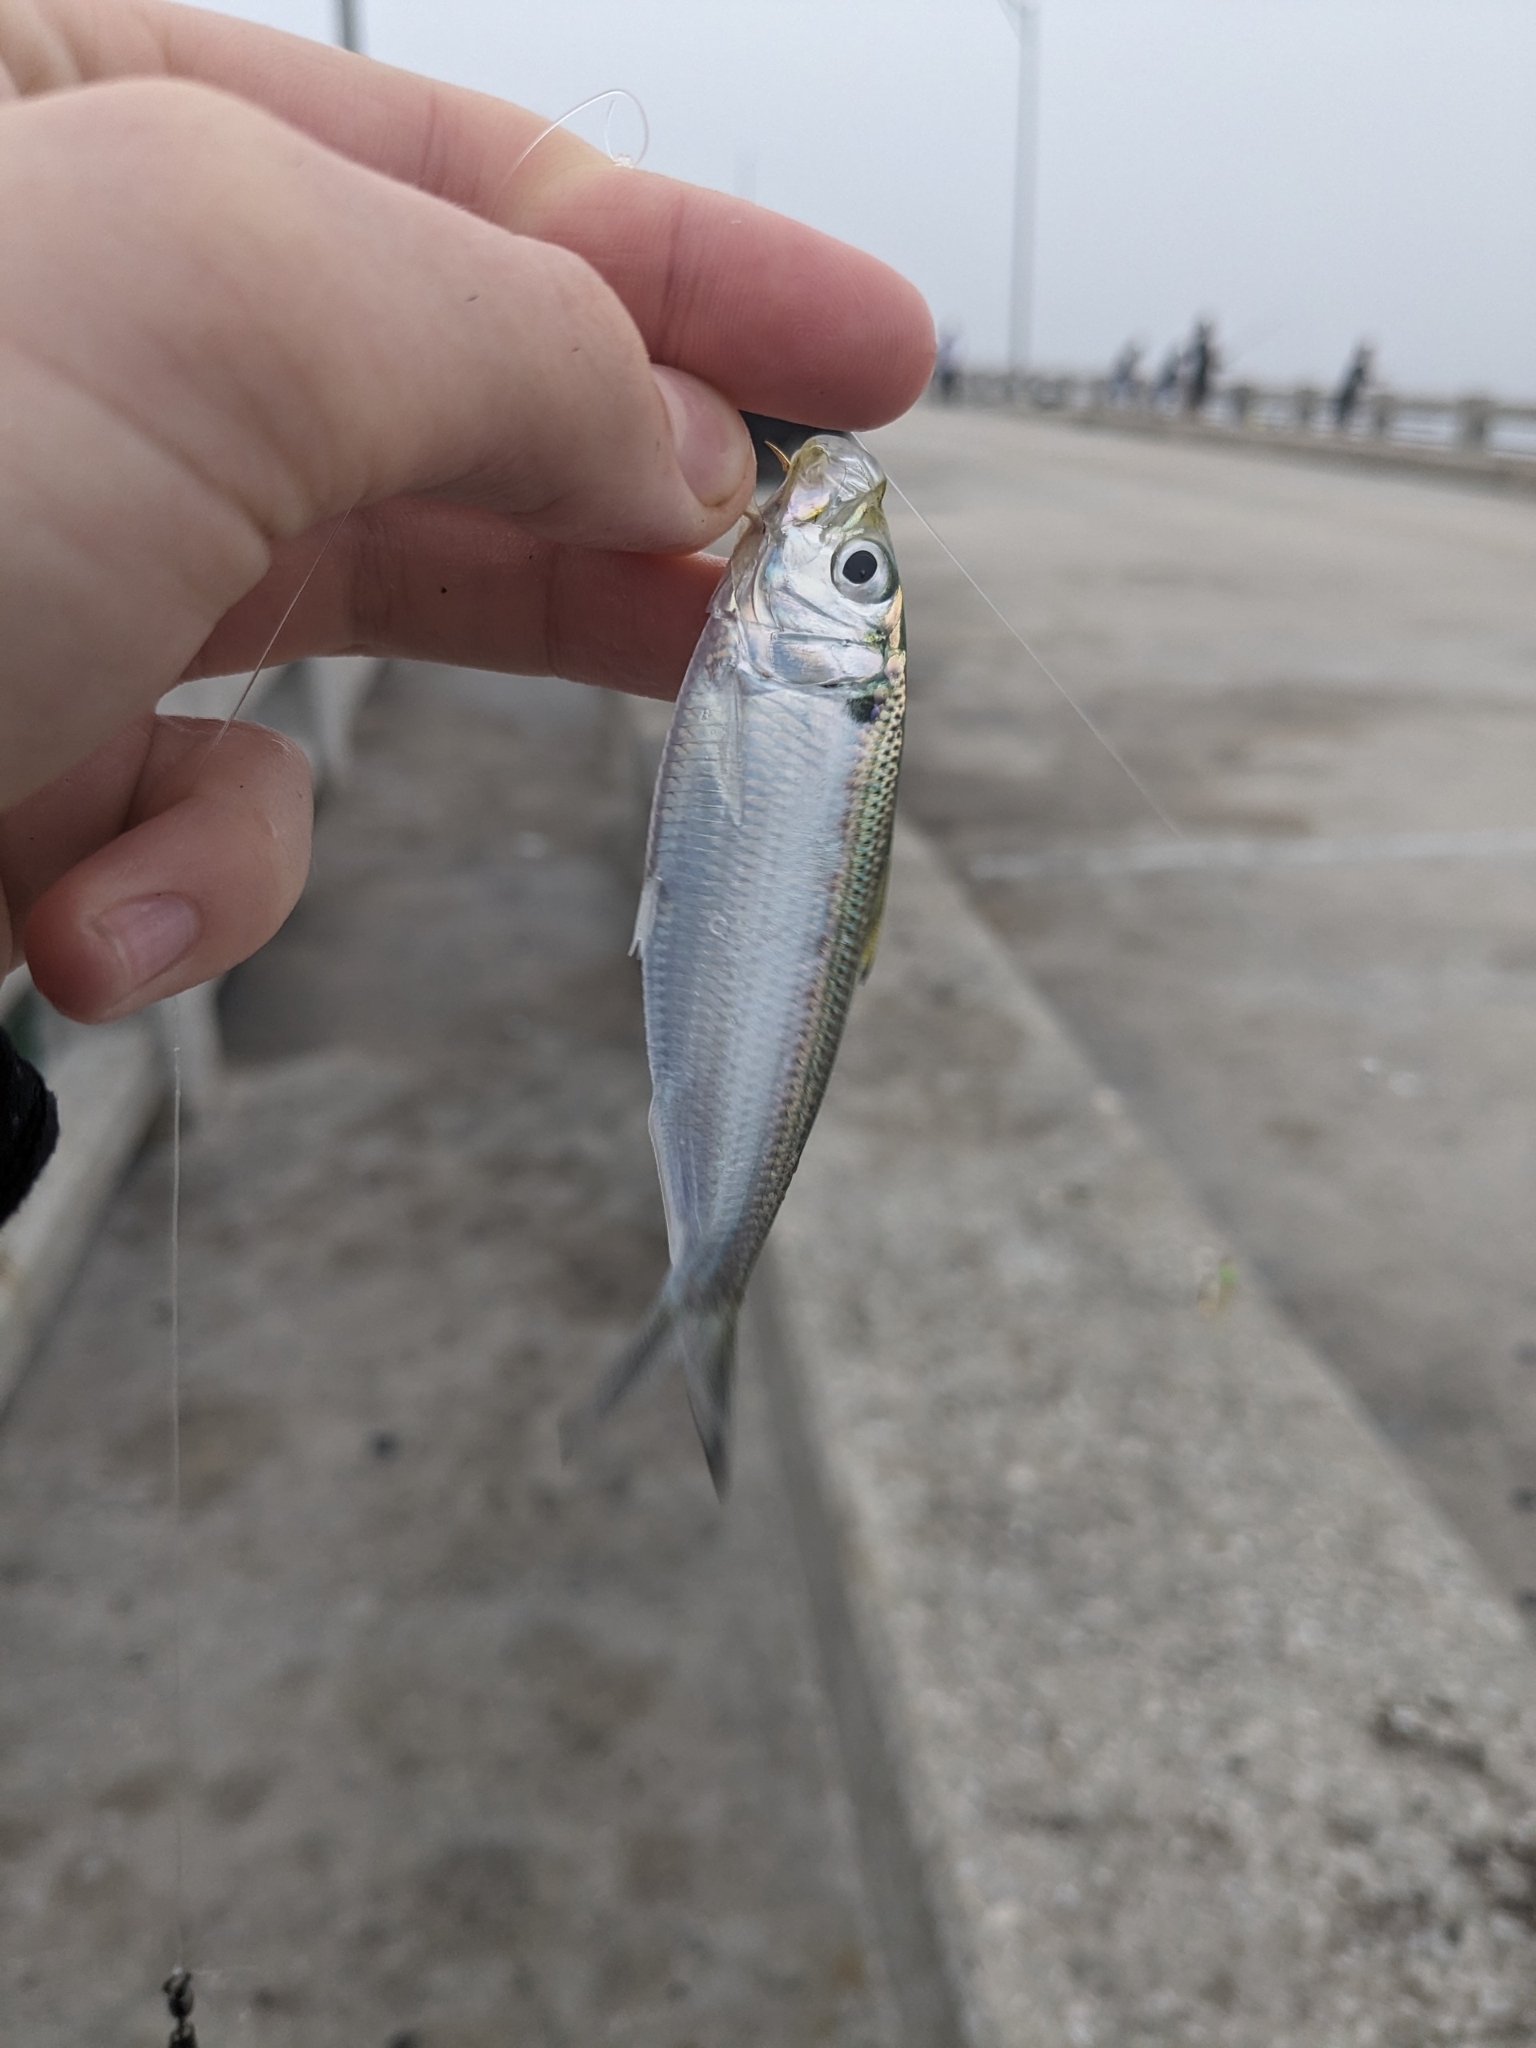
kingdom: Animalia
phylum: Chordata
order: Clupeiformes
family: Clupeidae
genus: Opisthonema
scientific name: Opisthonema oglinum
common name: Thread herring
